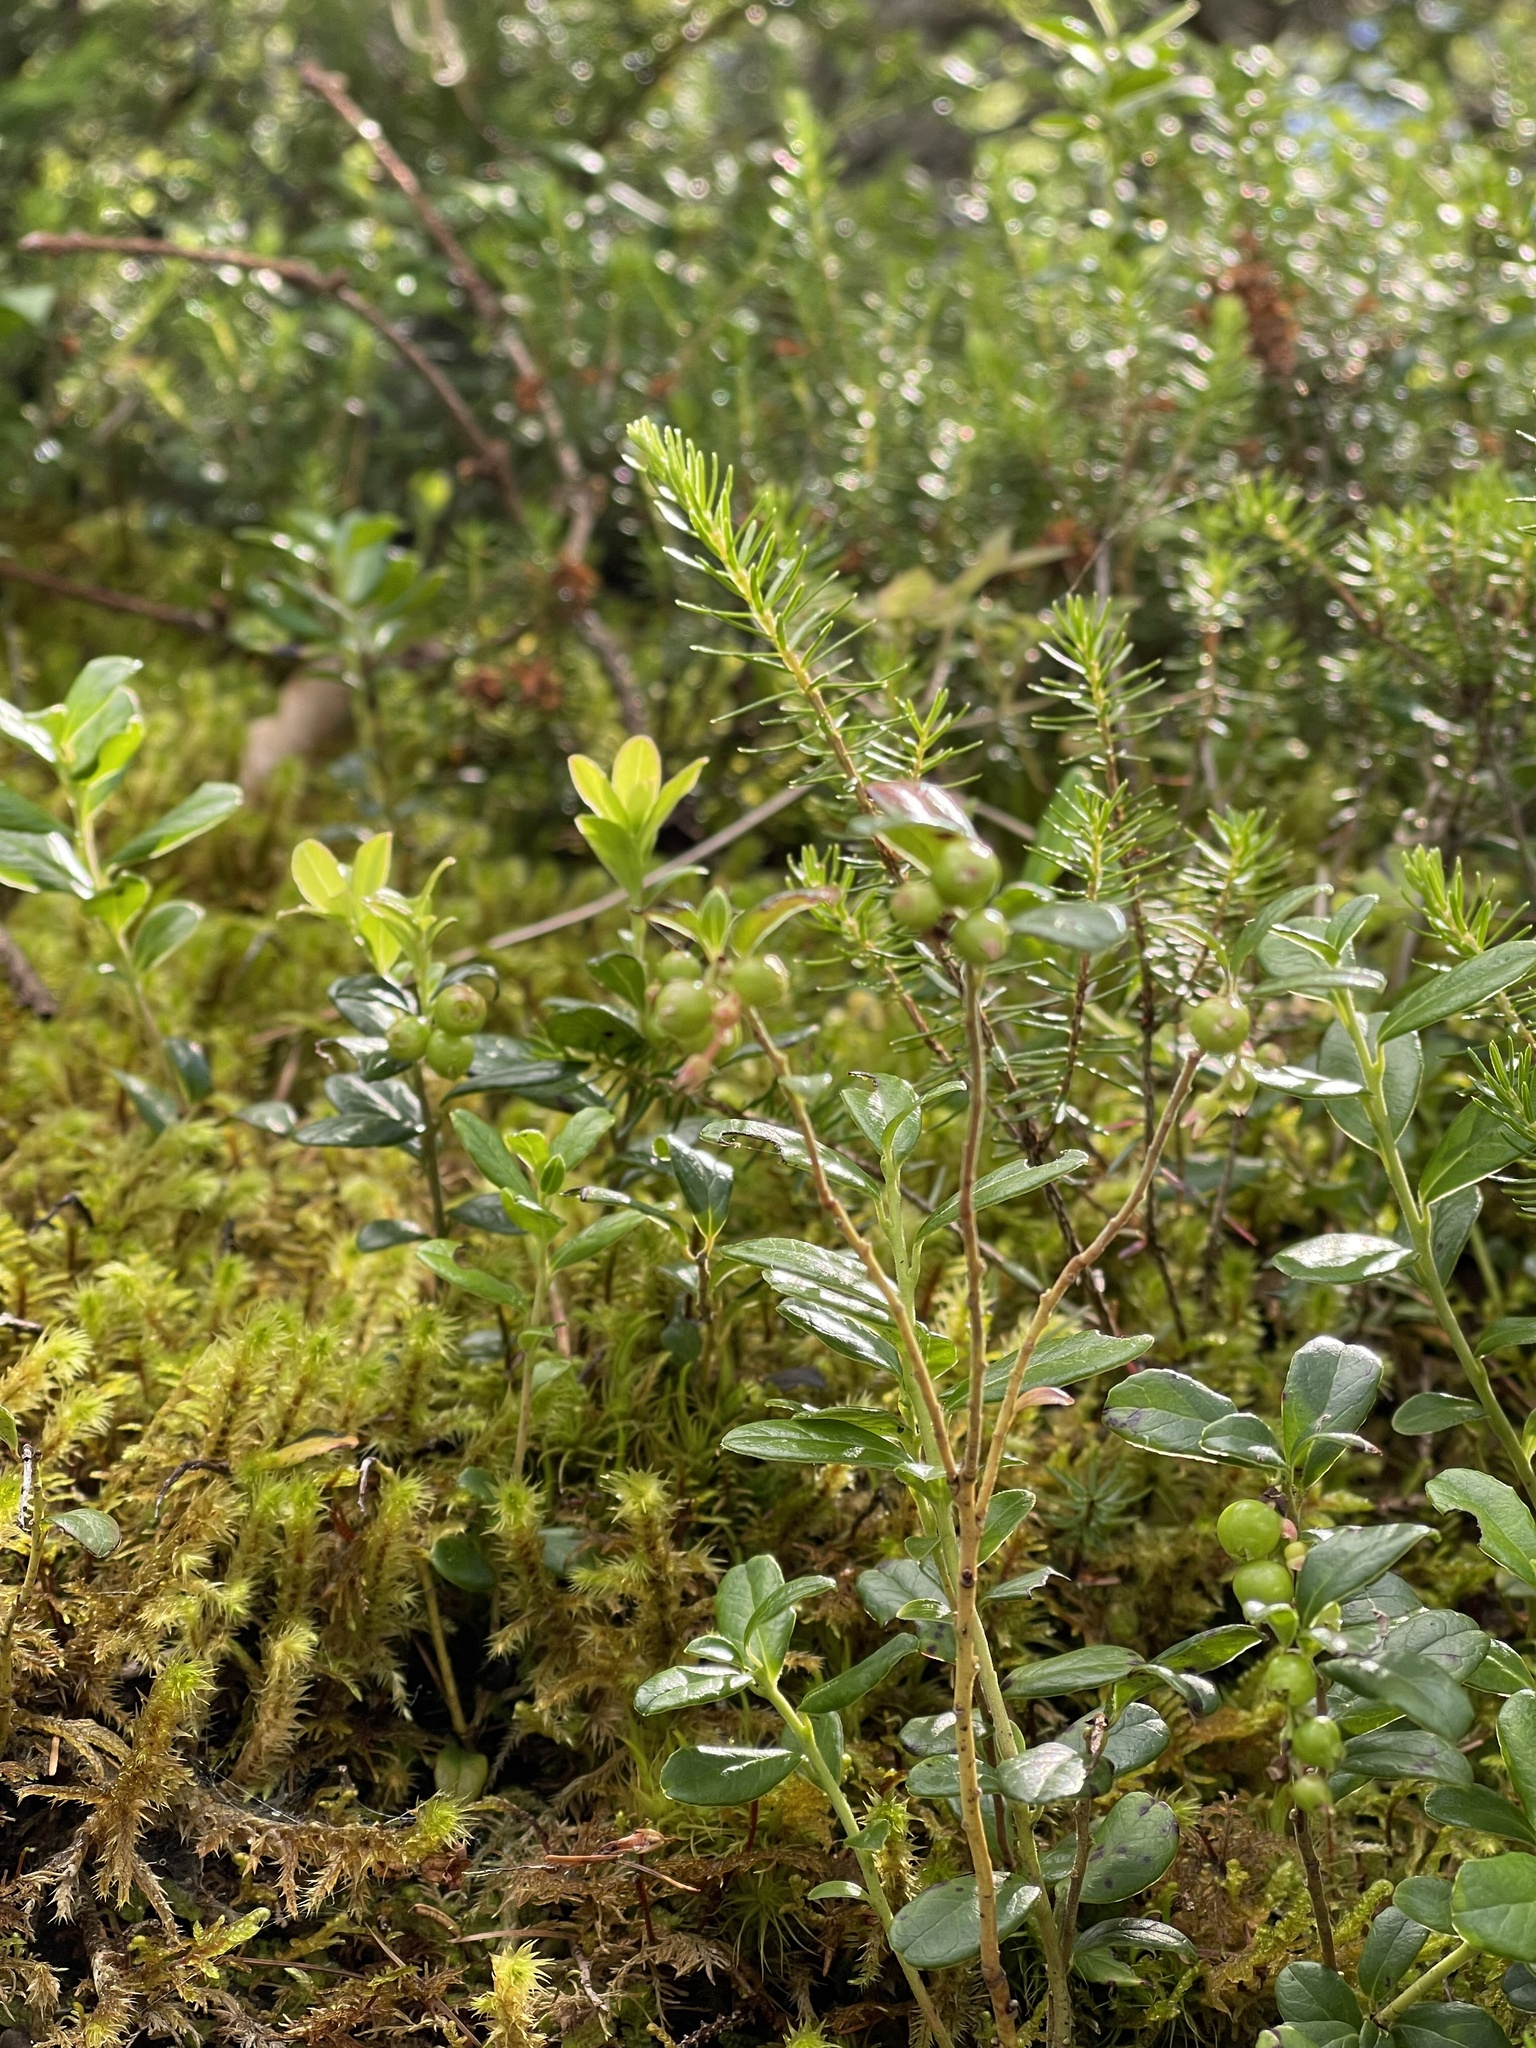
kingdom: Plantae
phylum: Tracheophyta
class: Magnoliopsida
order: Ericales
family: Ericaceae
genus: Vaccinium
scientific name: Vaccinium vitis-idaea
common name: Cowberry
